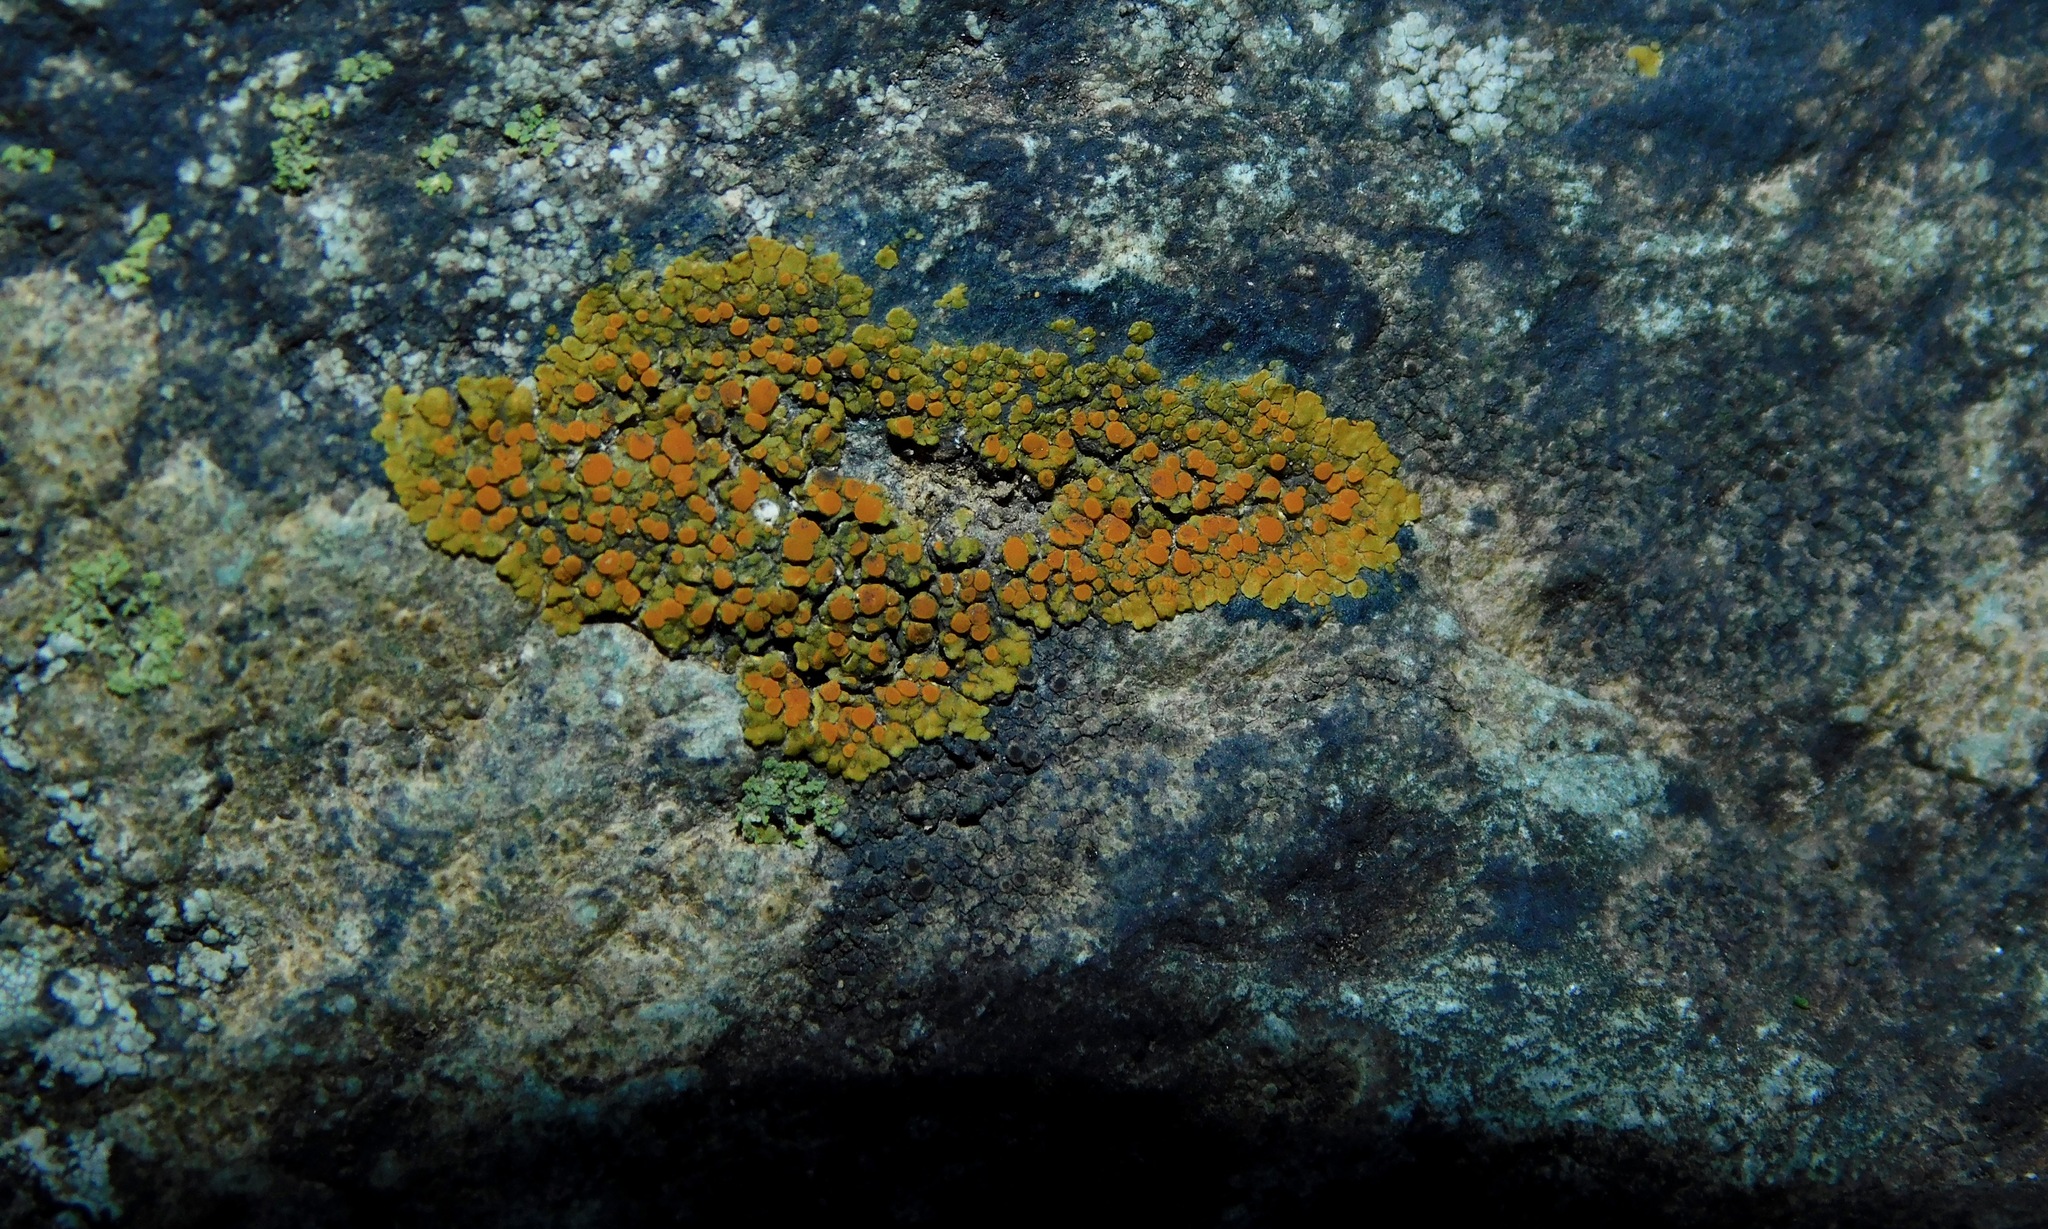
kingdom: Fungi
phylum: Ascomycota
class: Lecanoromycetes
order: Teloschistales
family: Teloschistaceae
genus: Squamulea
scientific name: Squamulea subsoluta
